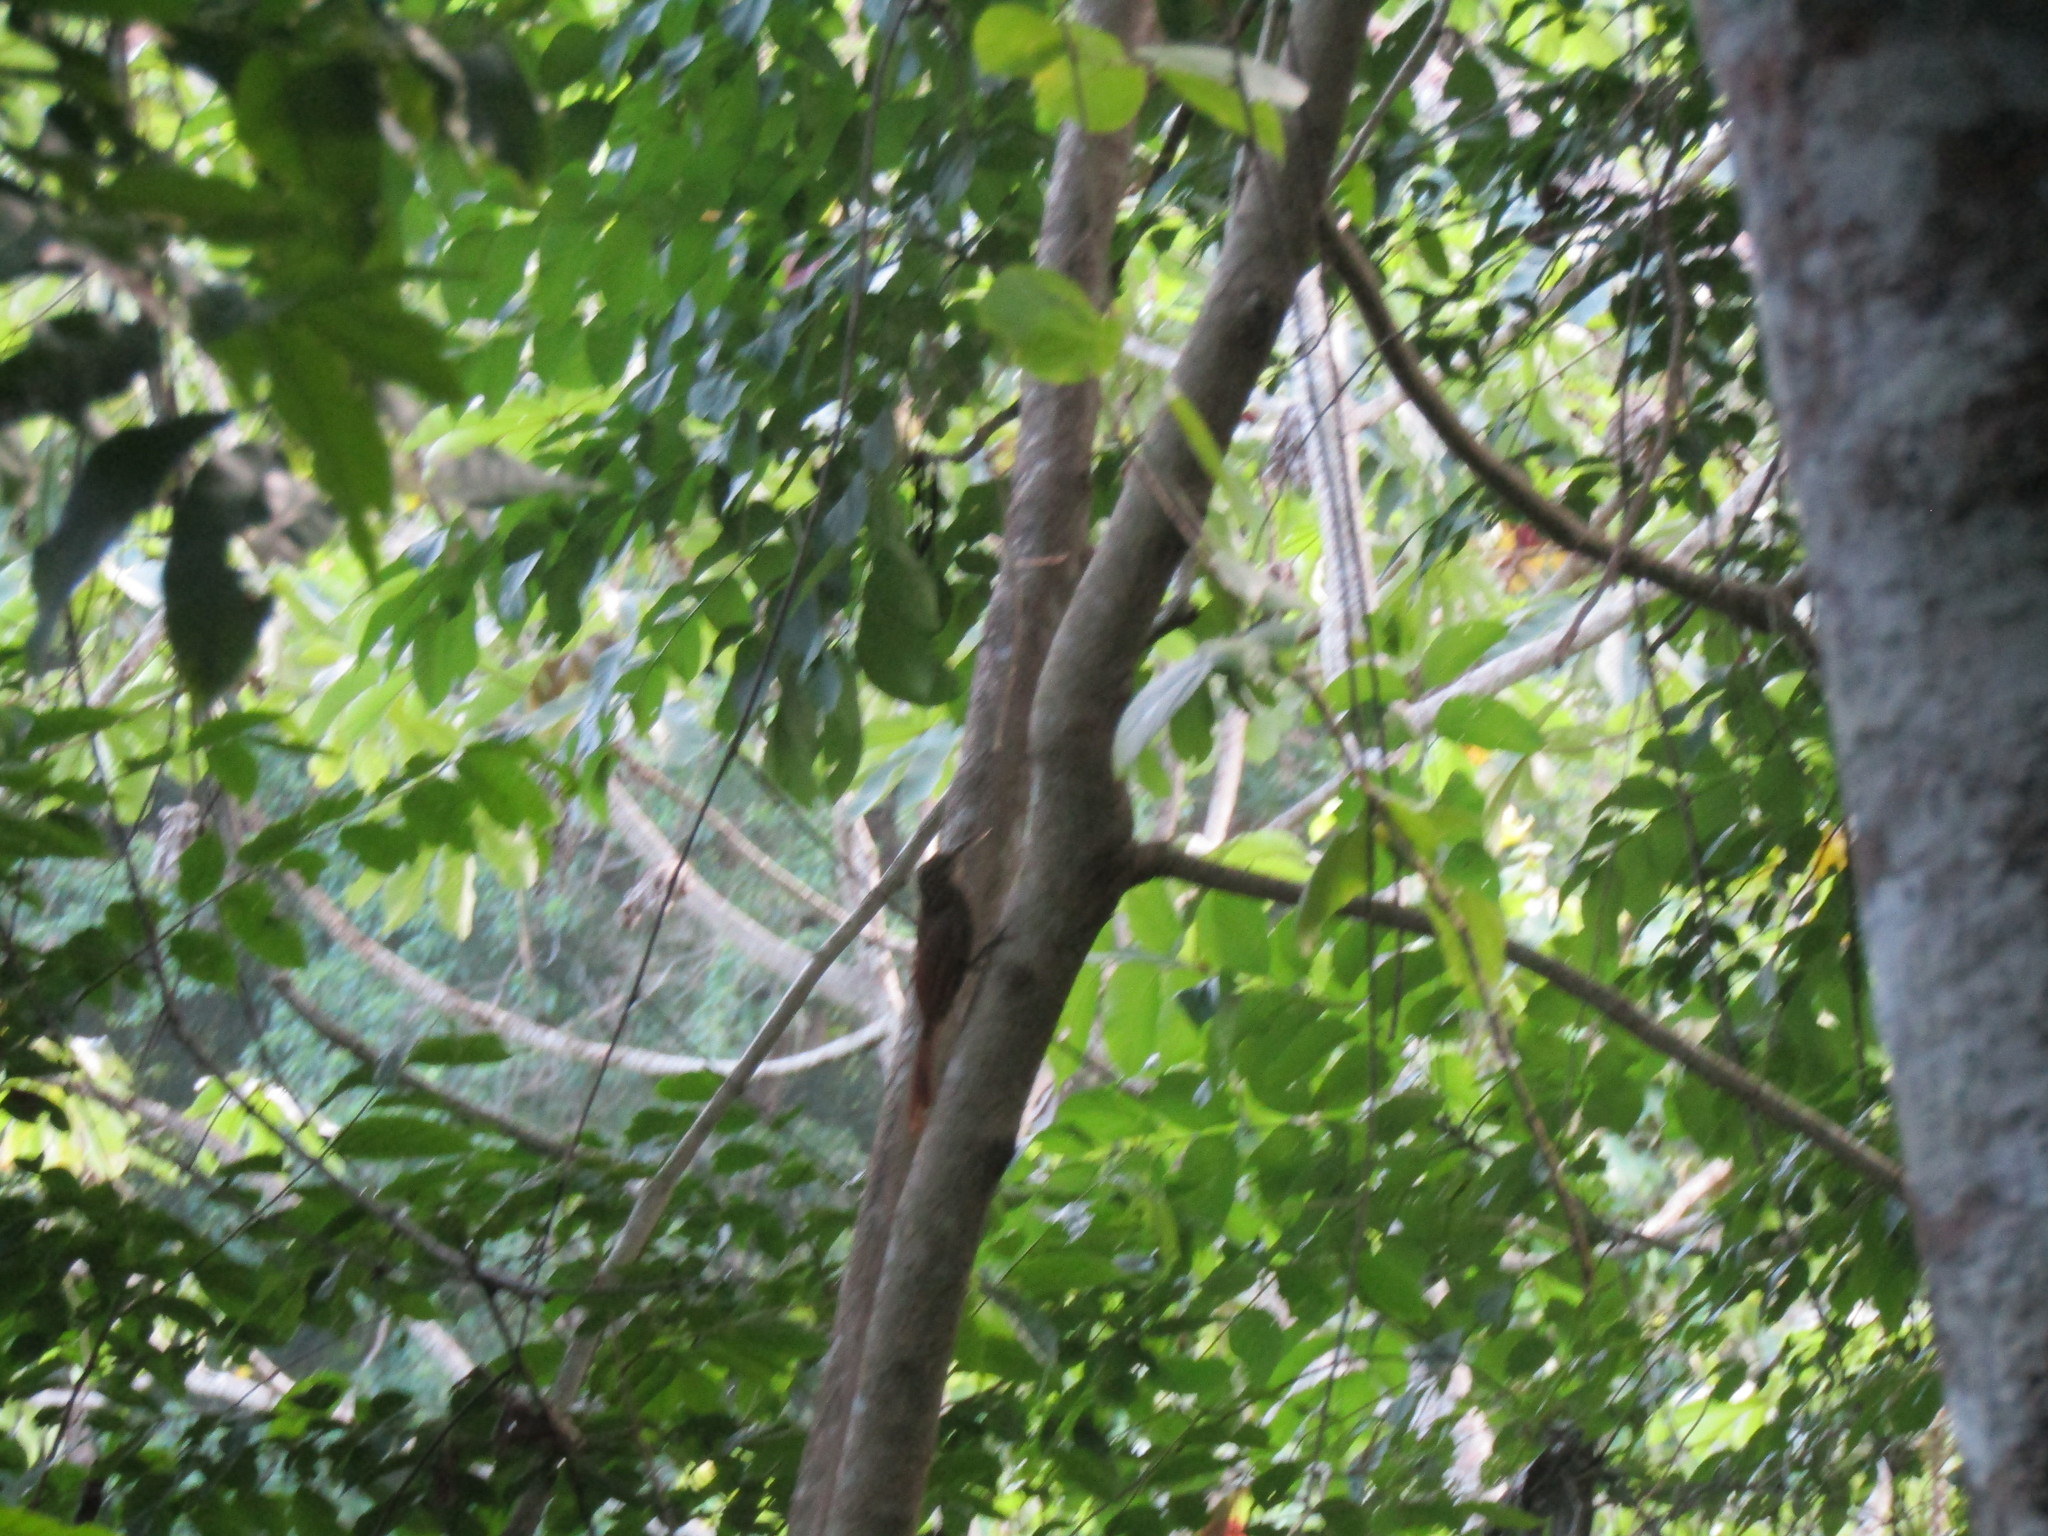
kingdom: Animalia
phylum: Chordata
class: Aves
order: Passeriformes
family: Furnariidae
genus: Xiphorhynchus
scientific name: Xiphorhynchus flavigaster
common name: Ivory-billed woodcreeper
